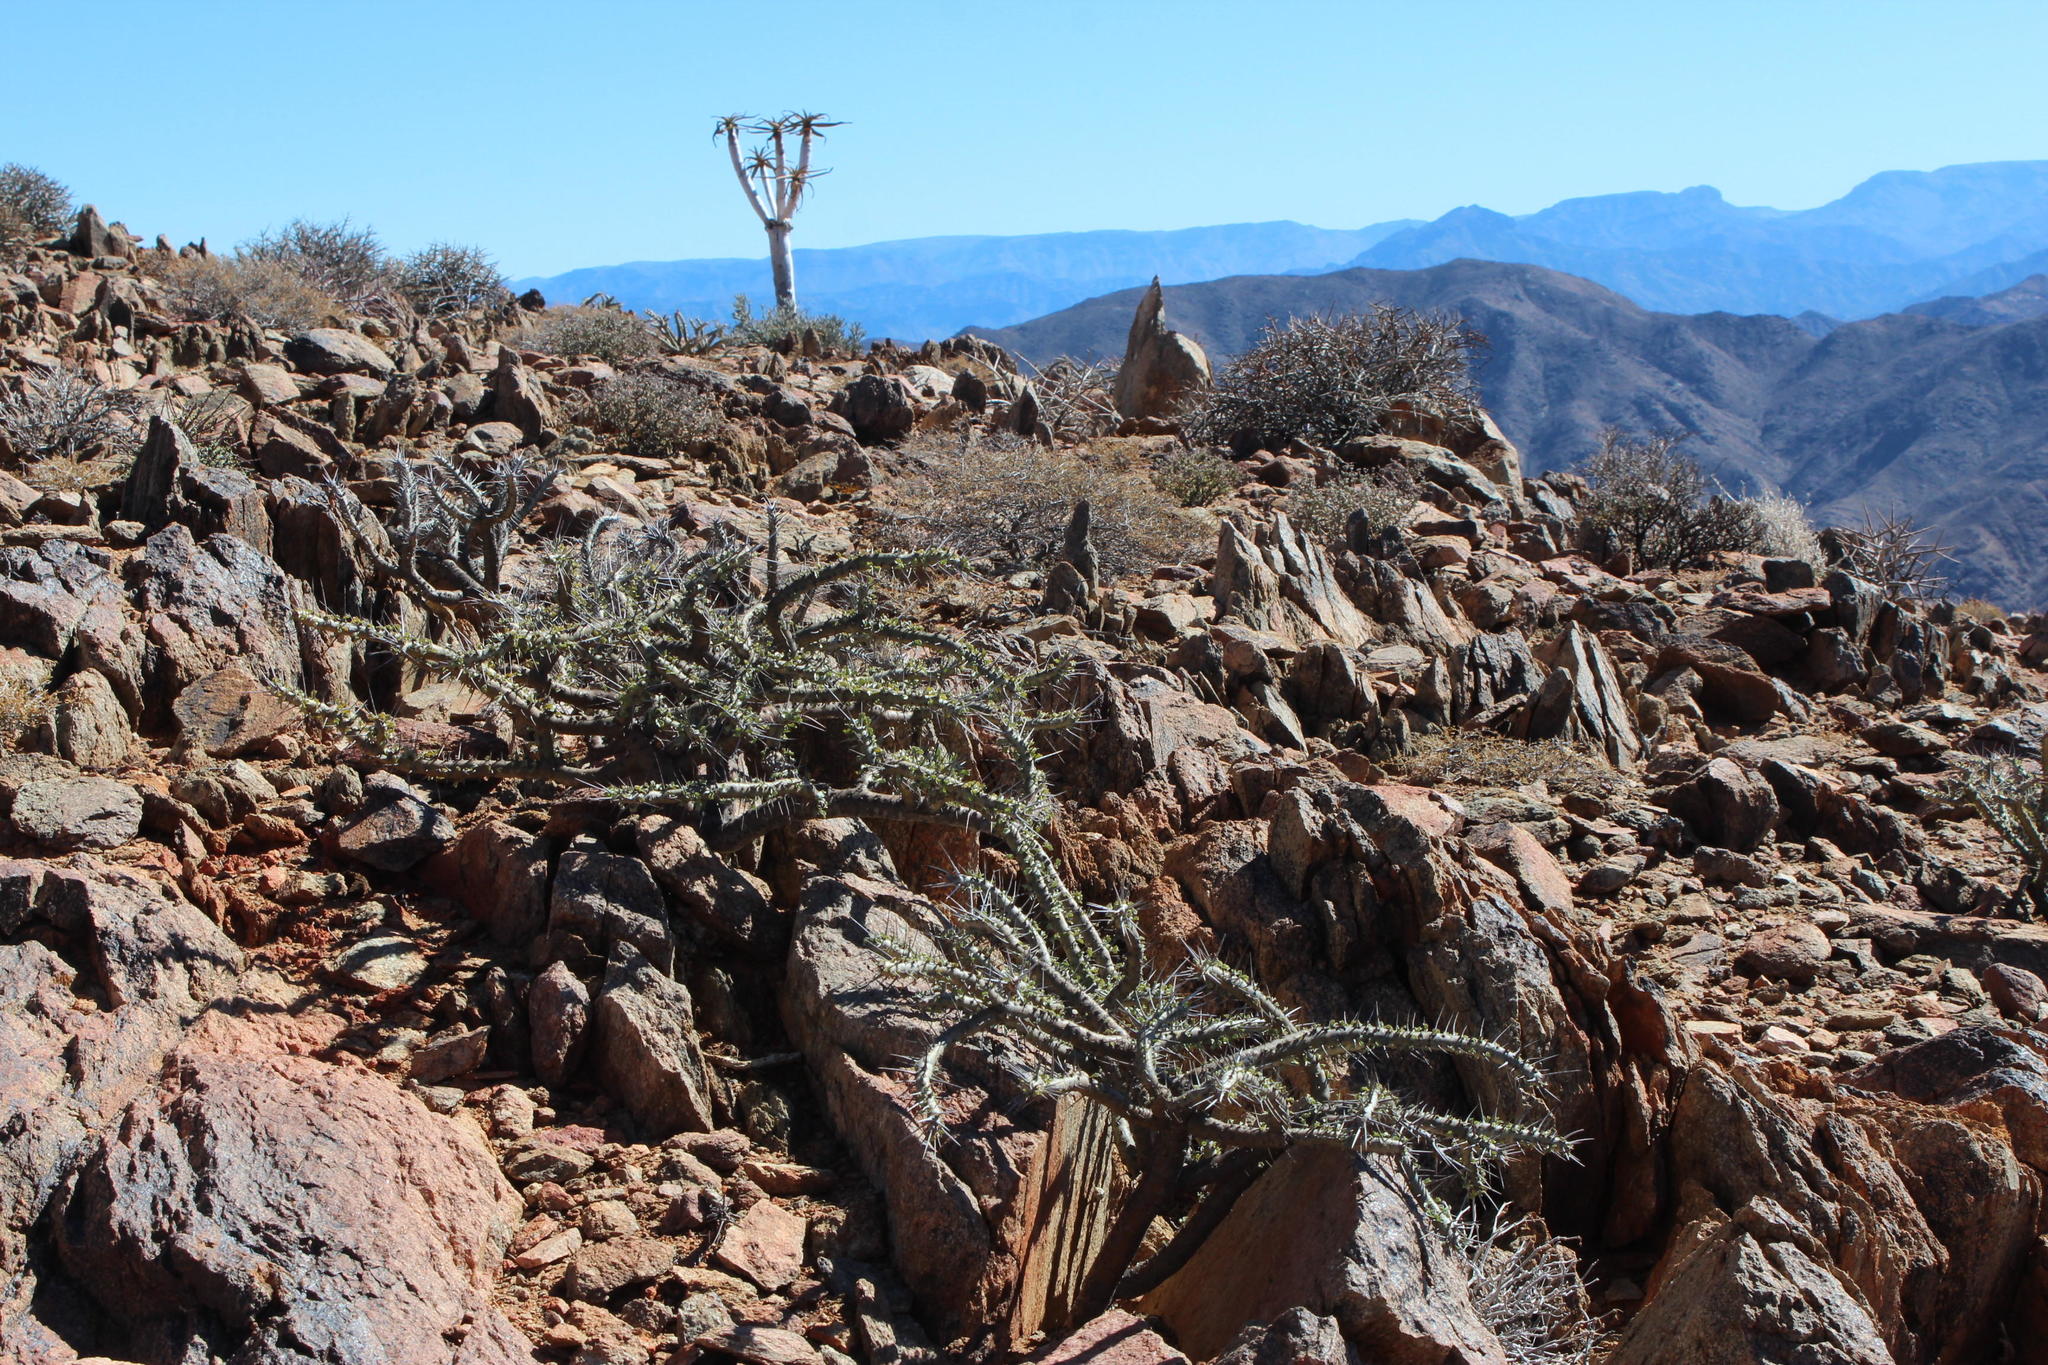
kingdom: Plantae
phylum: Tracheophyta
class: Magnoliopsida
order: Geraniales
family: Geraniaceae
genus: Monsonia
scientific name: Monsonia crassicaulis
